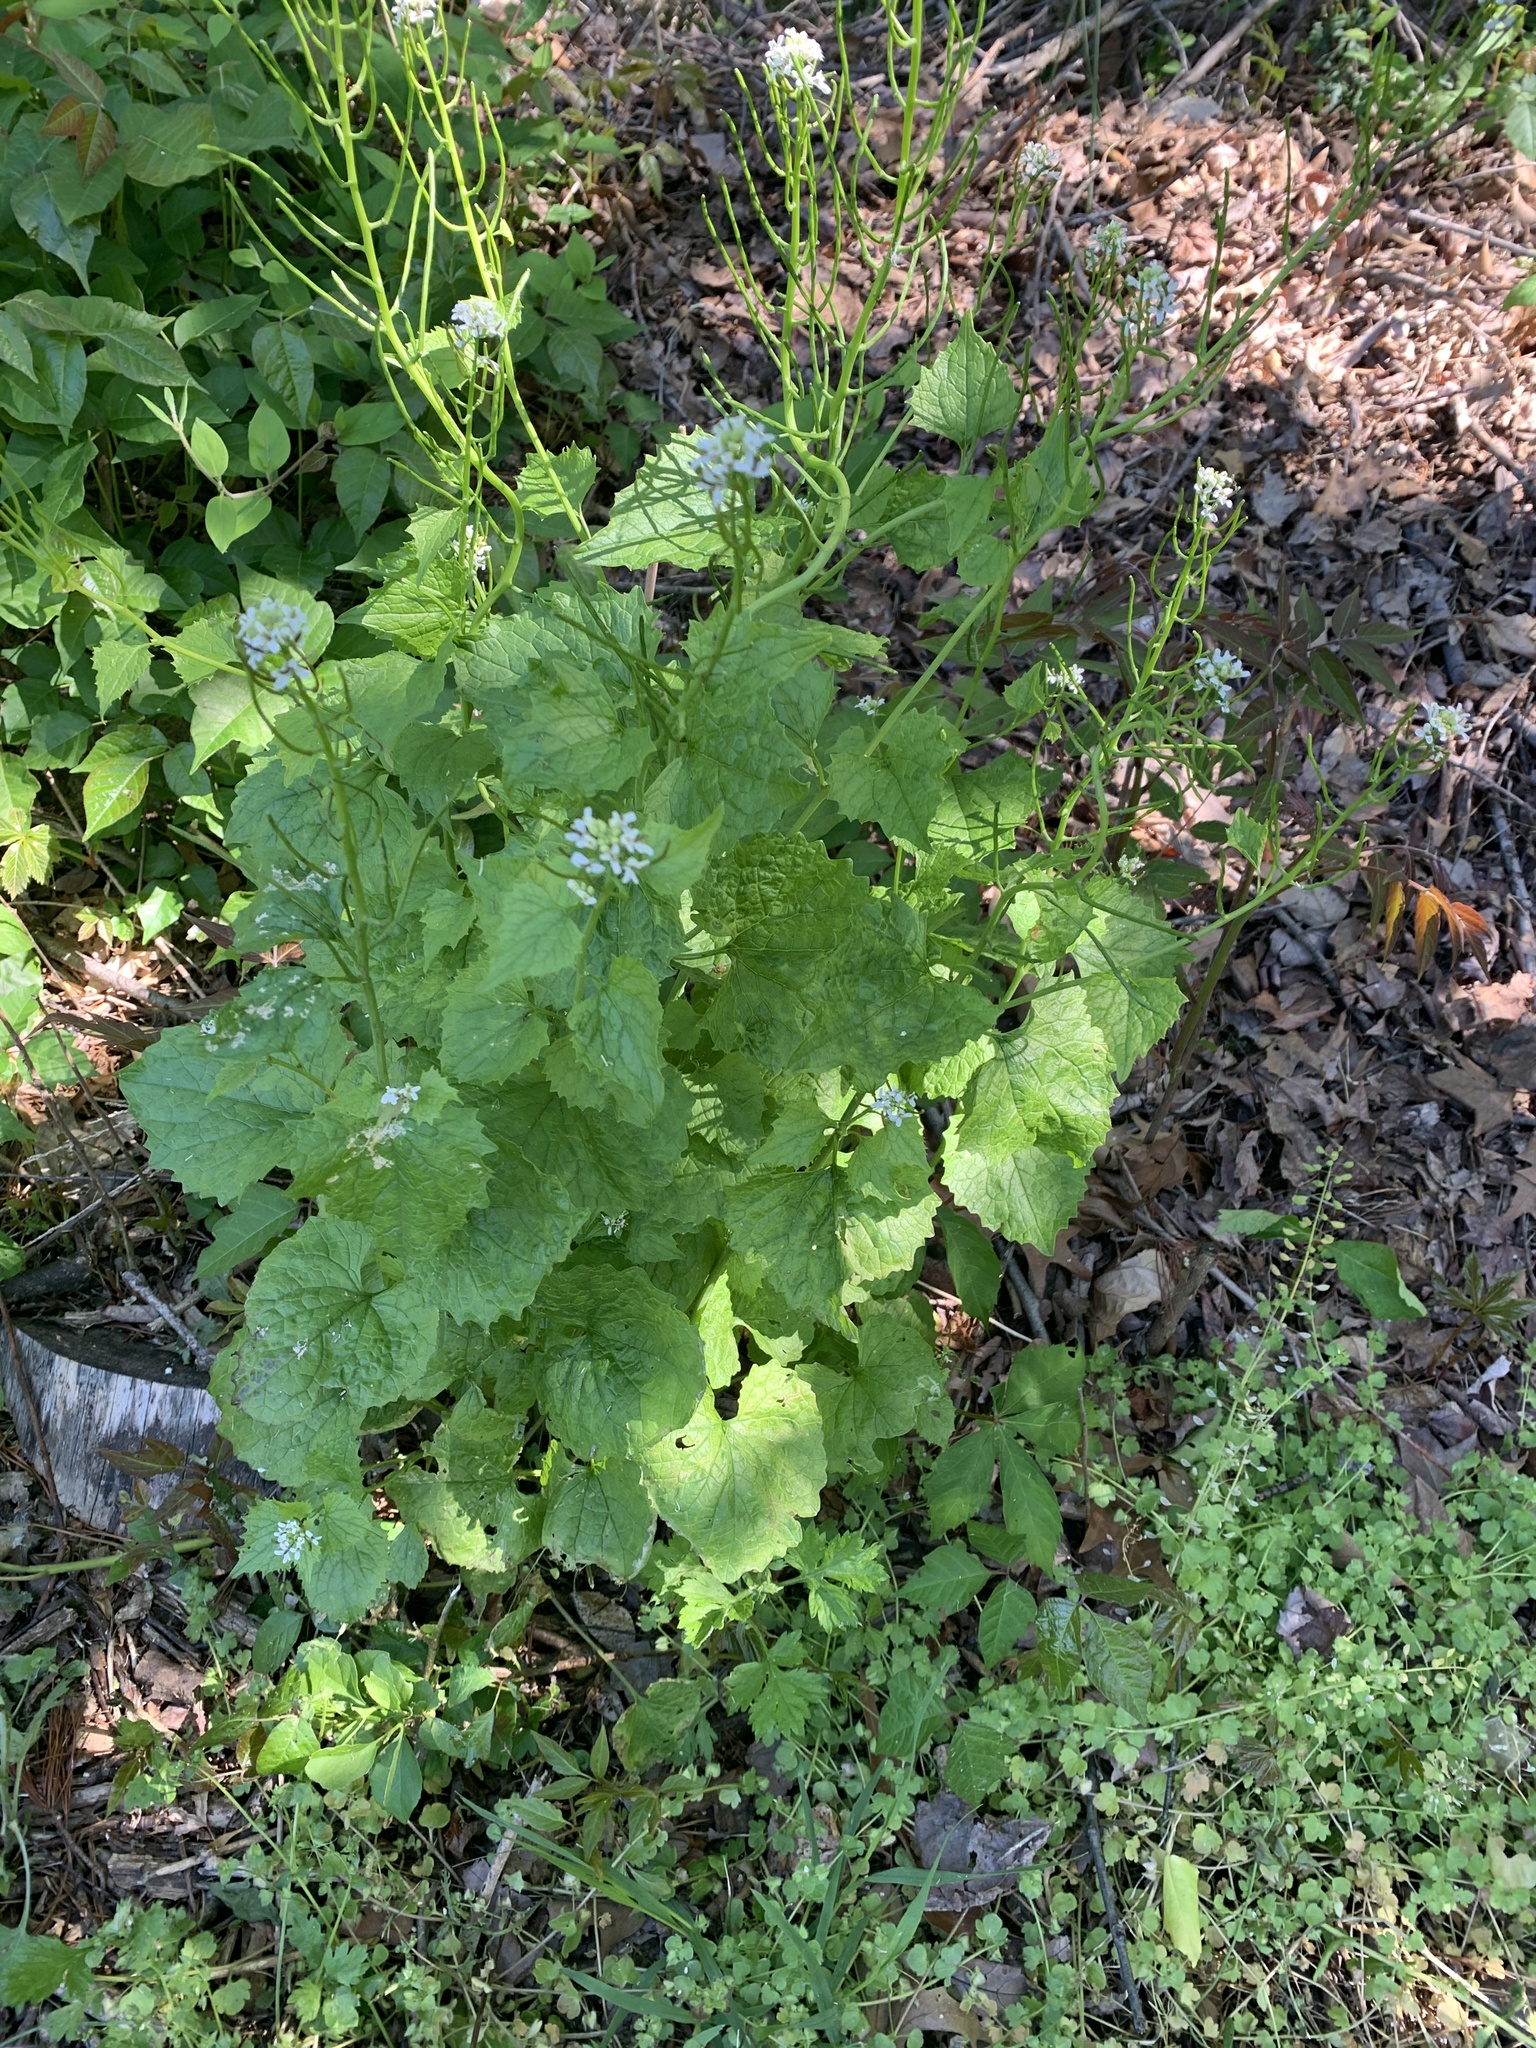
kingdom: Plantae
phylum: Tracheophyta
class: Magnoliopsida
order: Brassicales
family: Brassicaceae
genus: Alliaria
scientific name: Alliaria petiolata
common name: Garlic mustard
